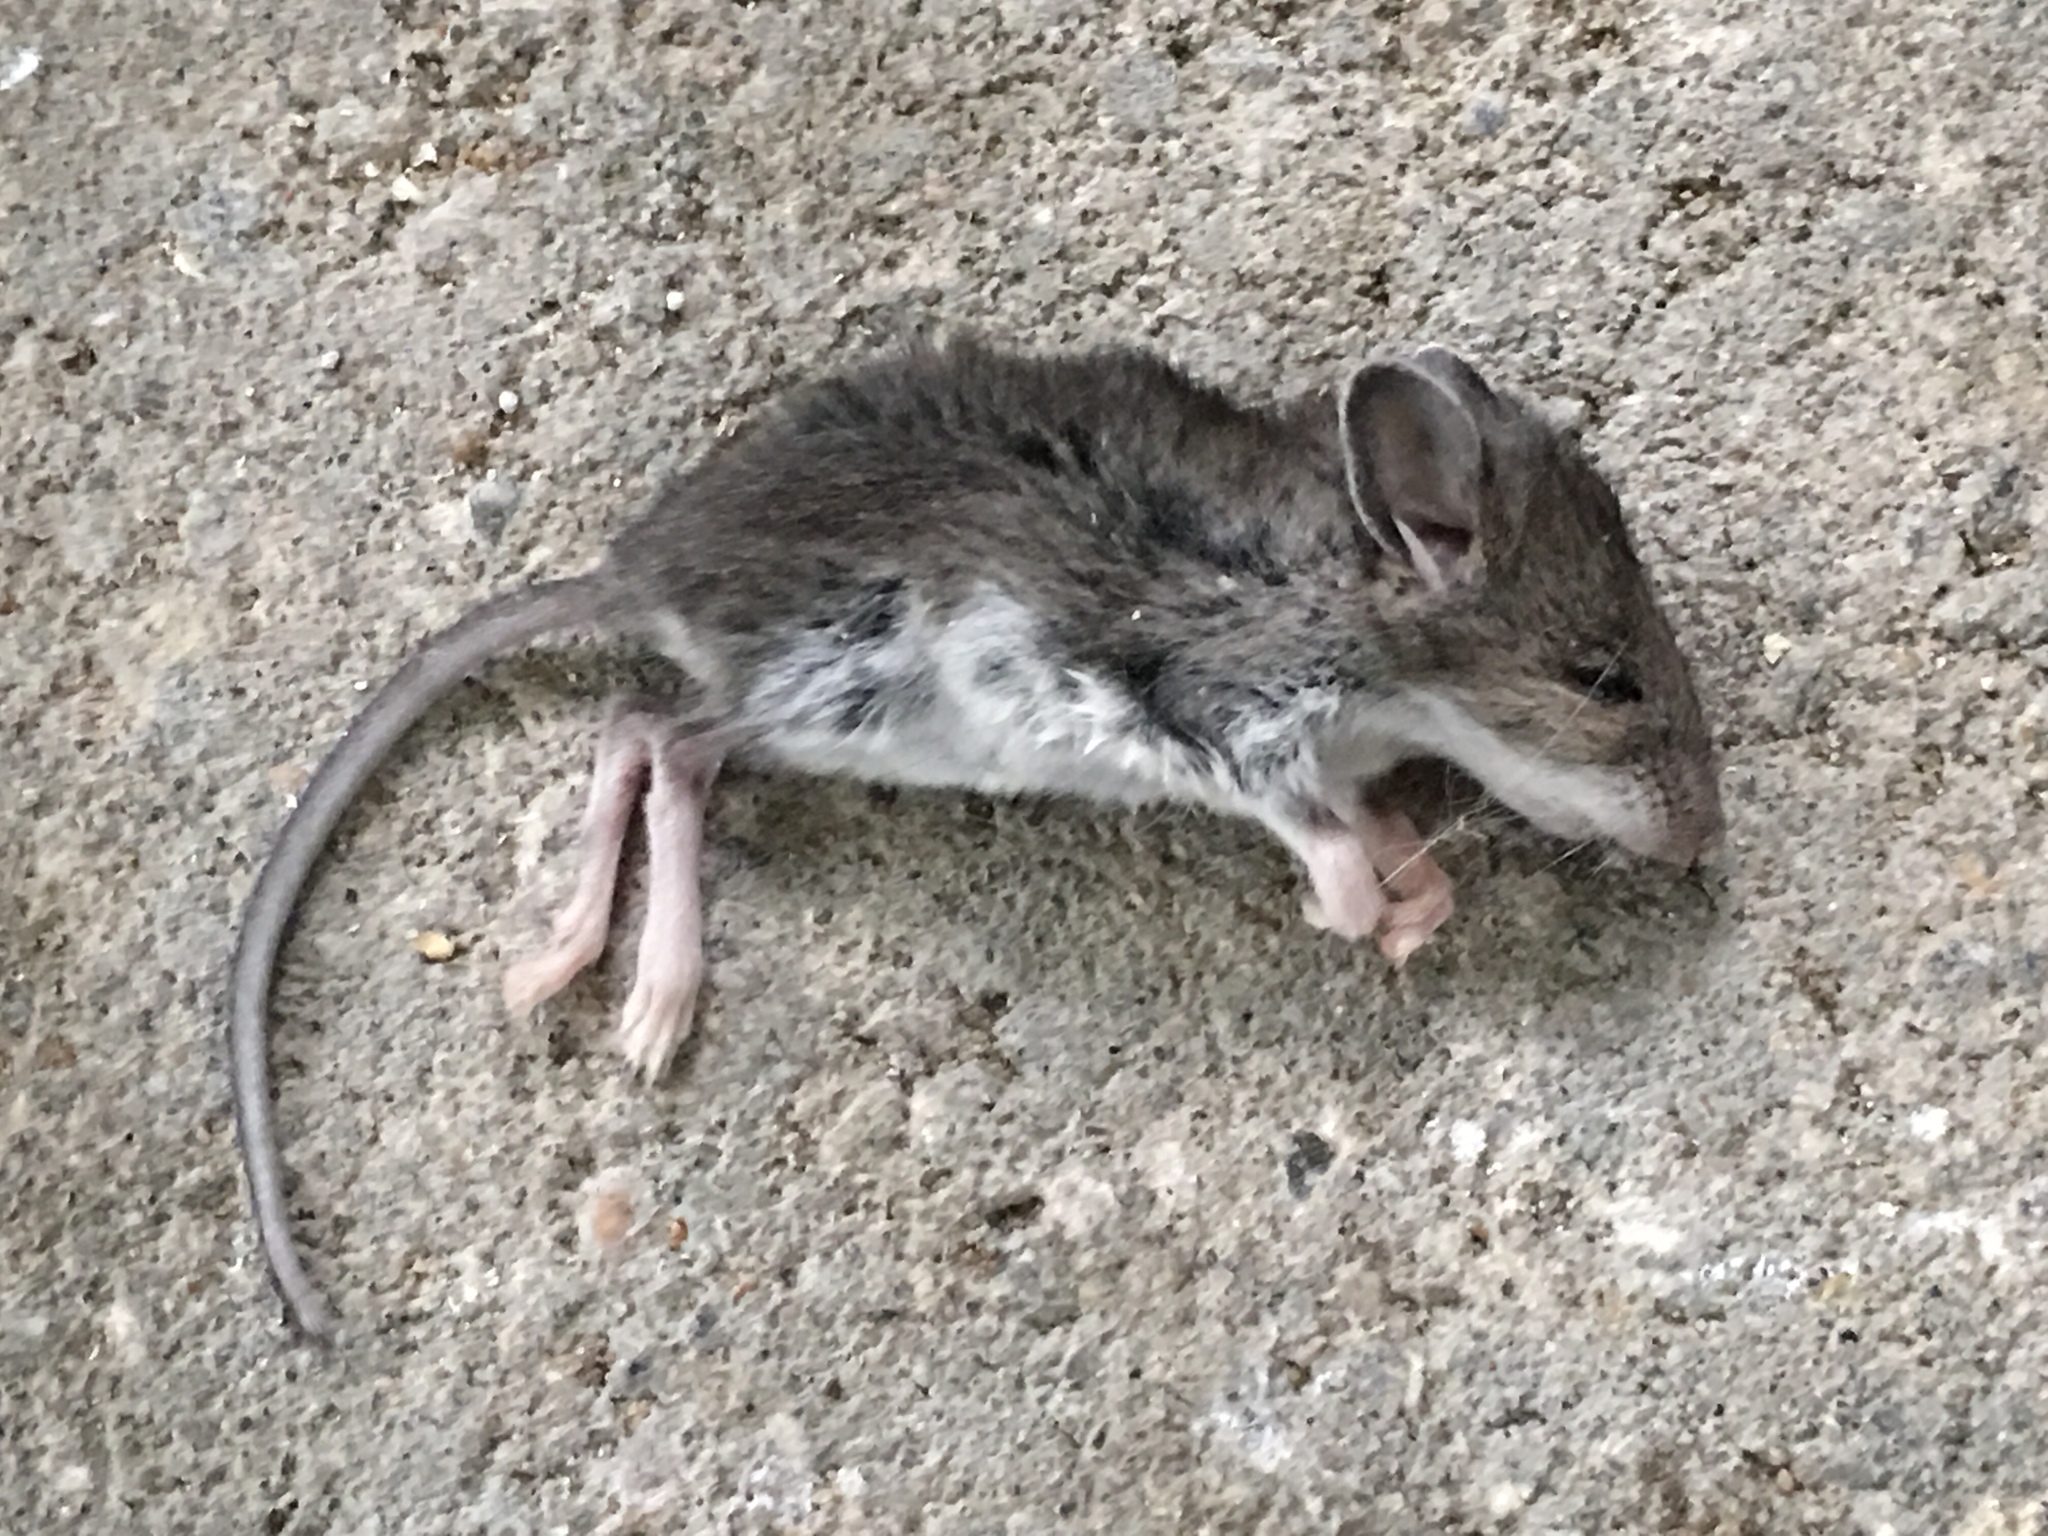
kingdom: Animalia
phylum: Chordata
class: Mammalia
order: Rodentia
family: Cricetidae
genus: Peromyscus
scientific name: Peromyscus leucopus
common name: White-footed deermouse
